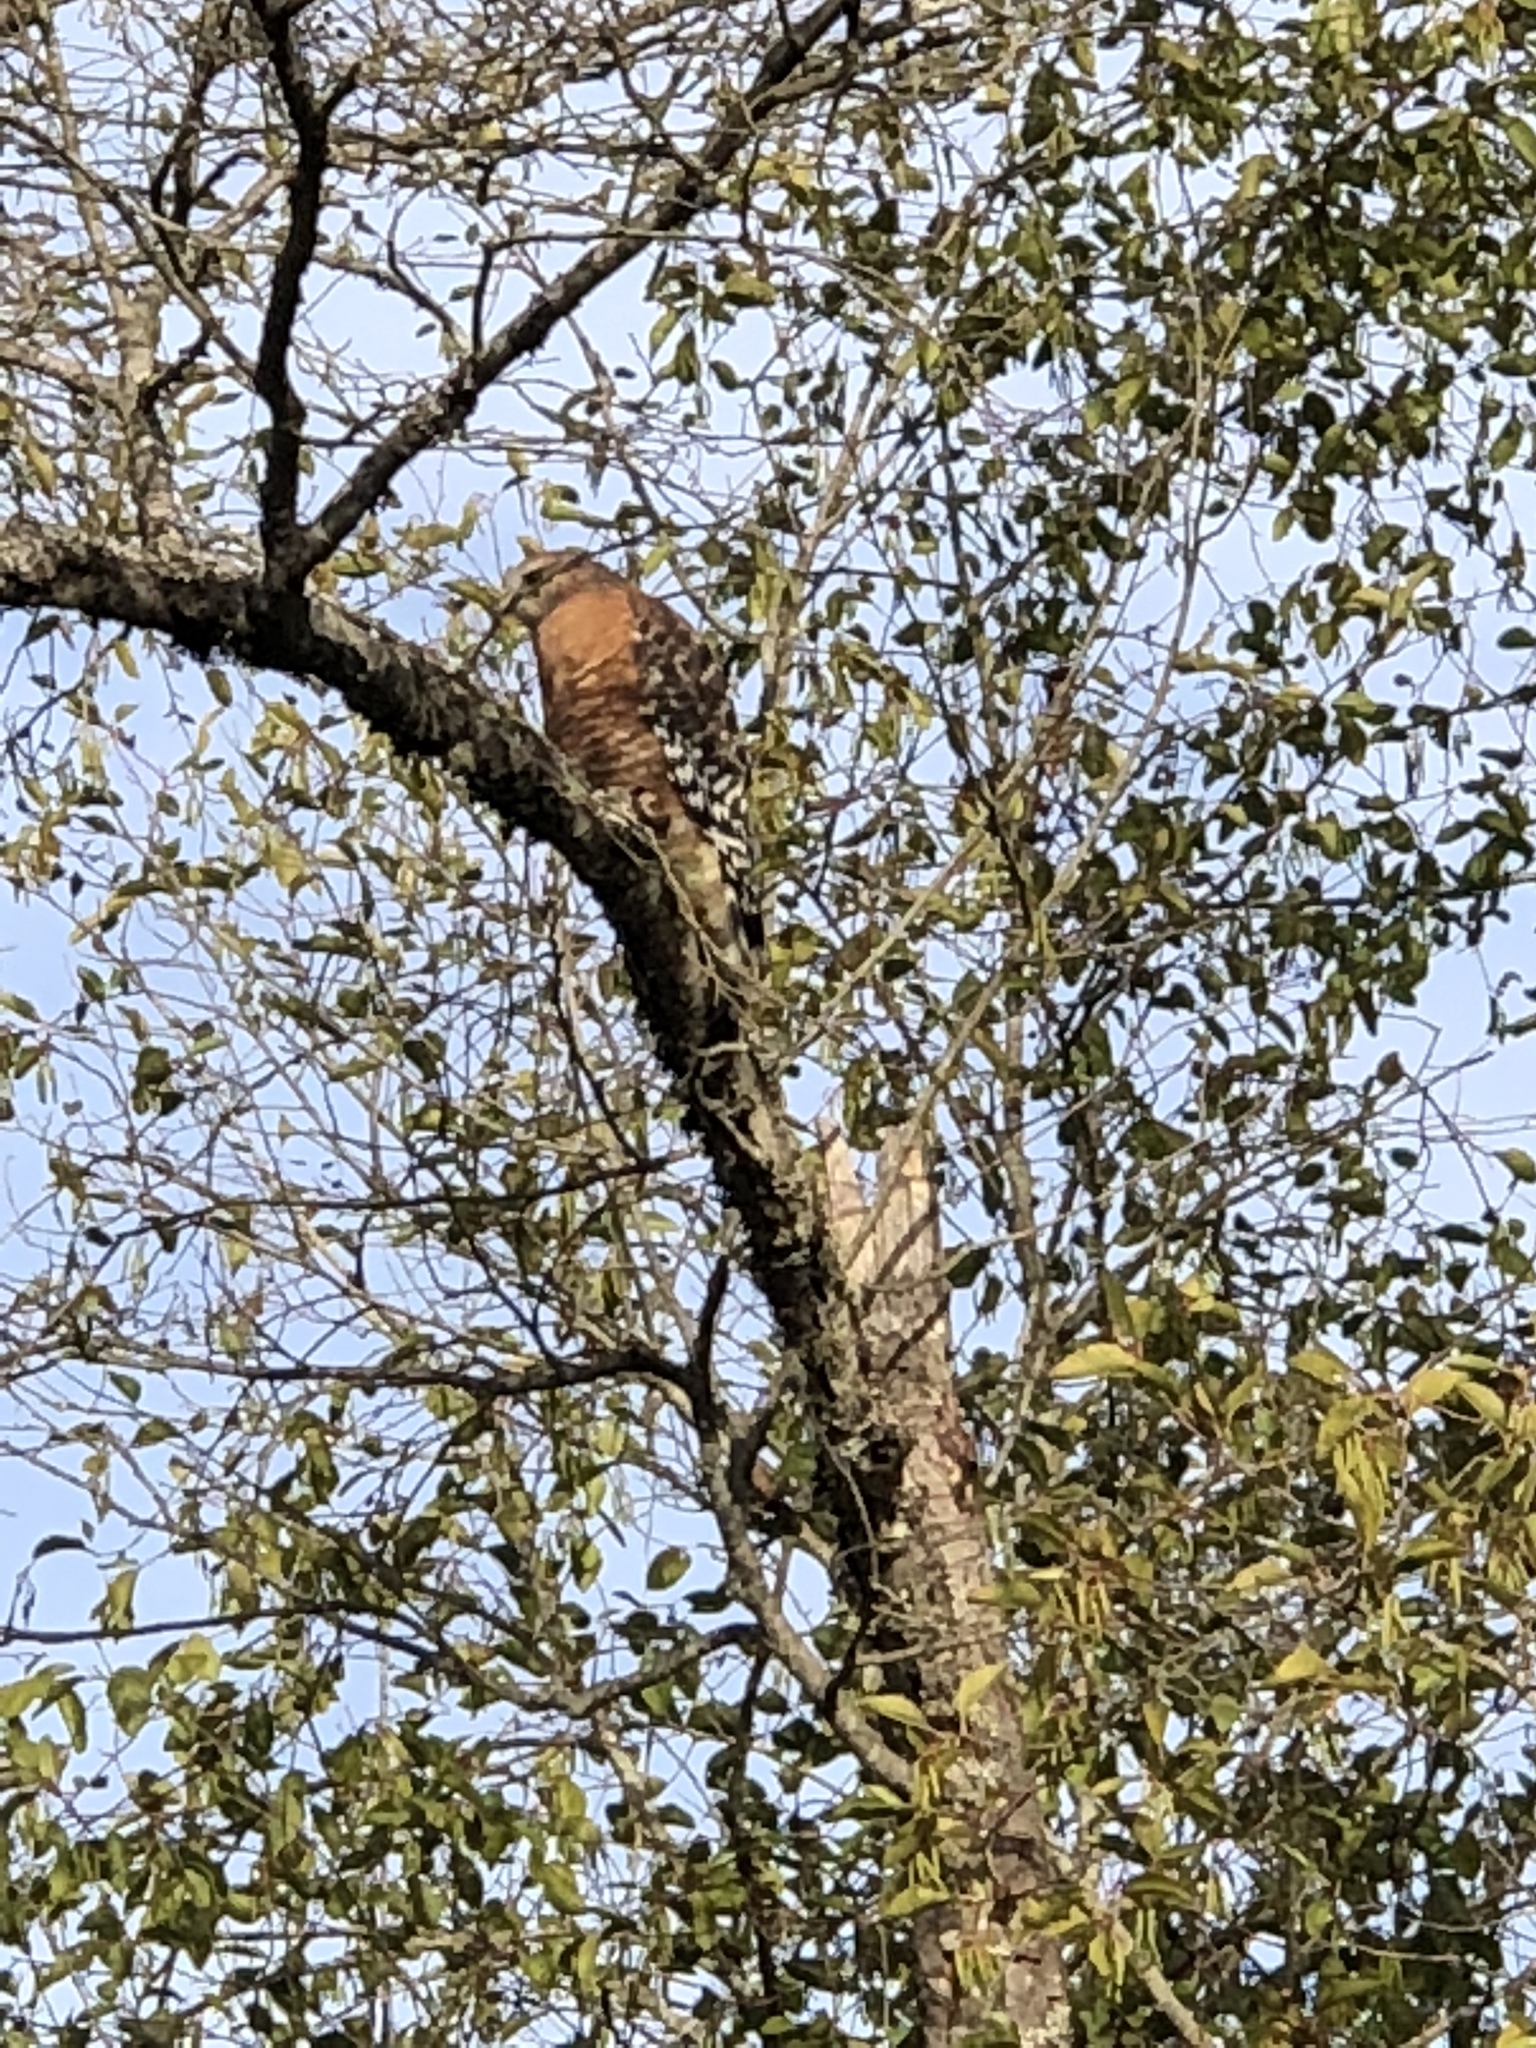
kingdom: Animalia
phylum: Chordata
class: Aves
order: Accipitriformes
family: Accipitridae
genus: Buteo
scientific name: Buteo lineatus
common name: Red-shouldered hawk
